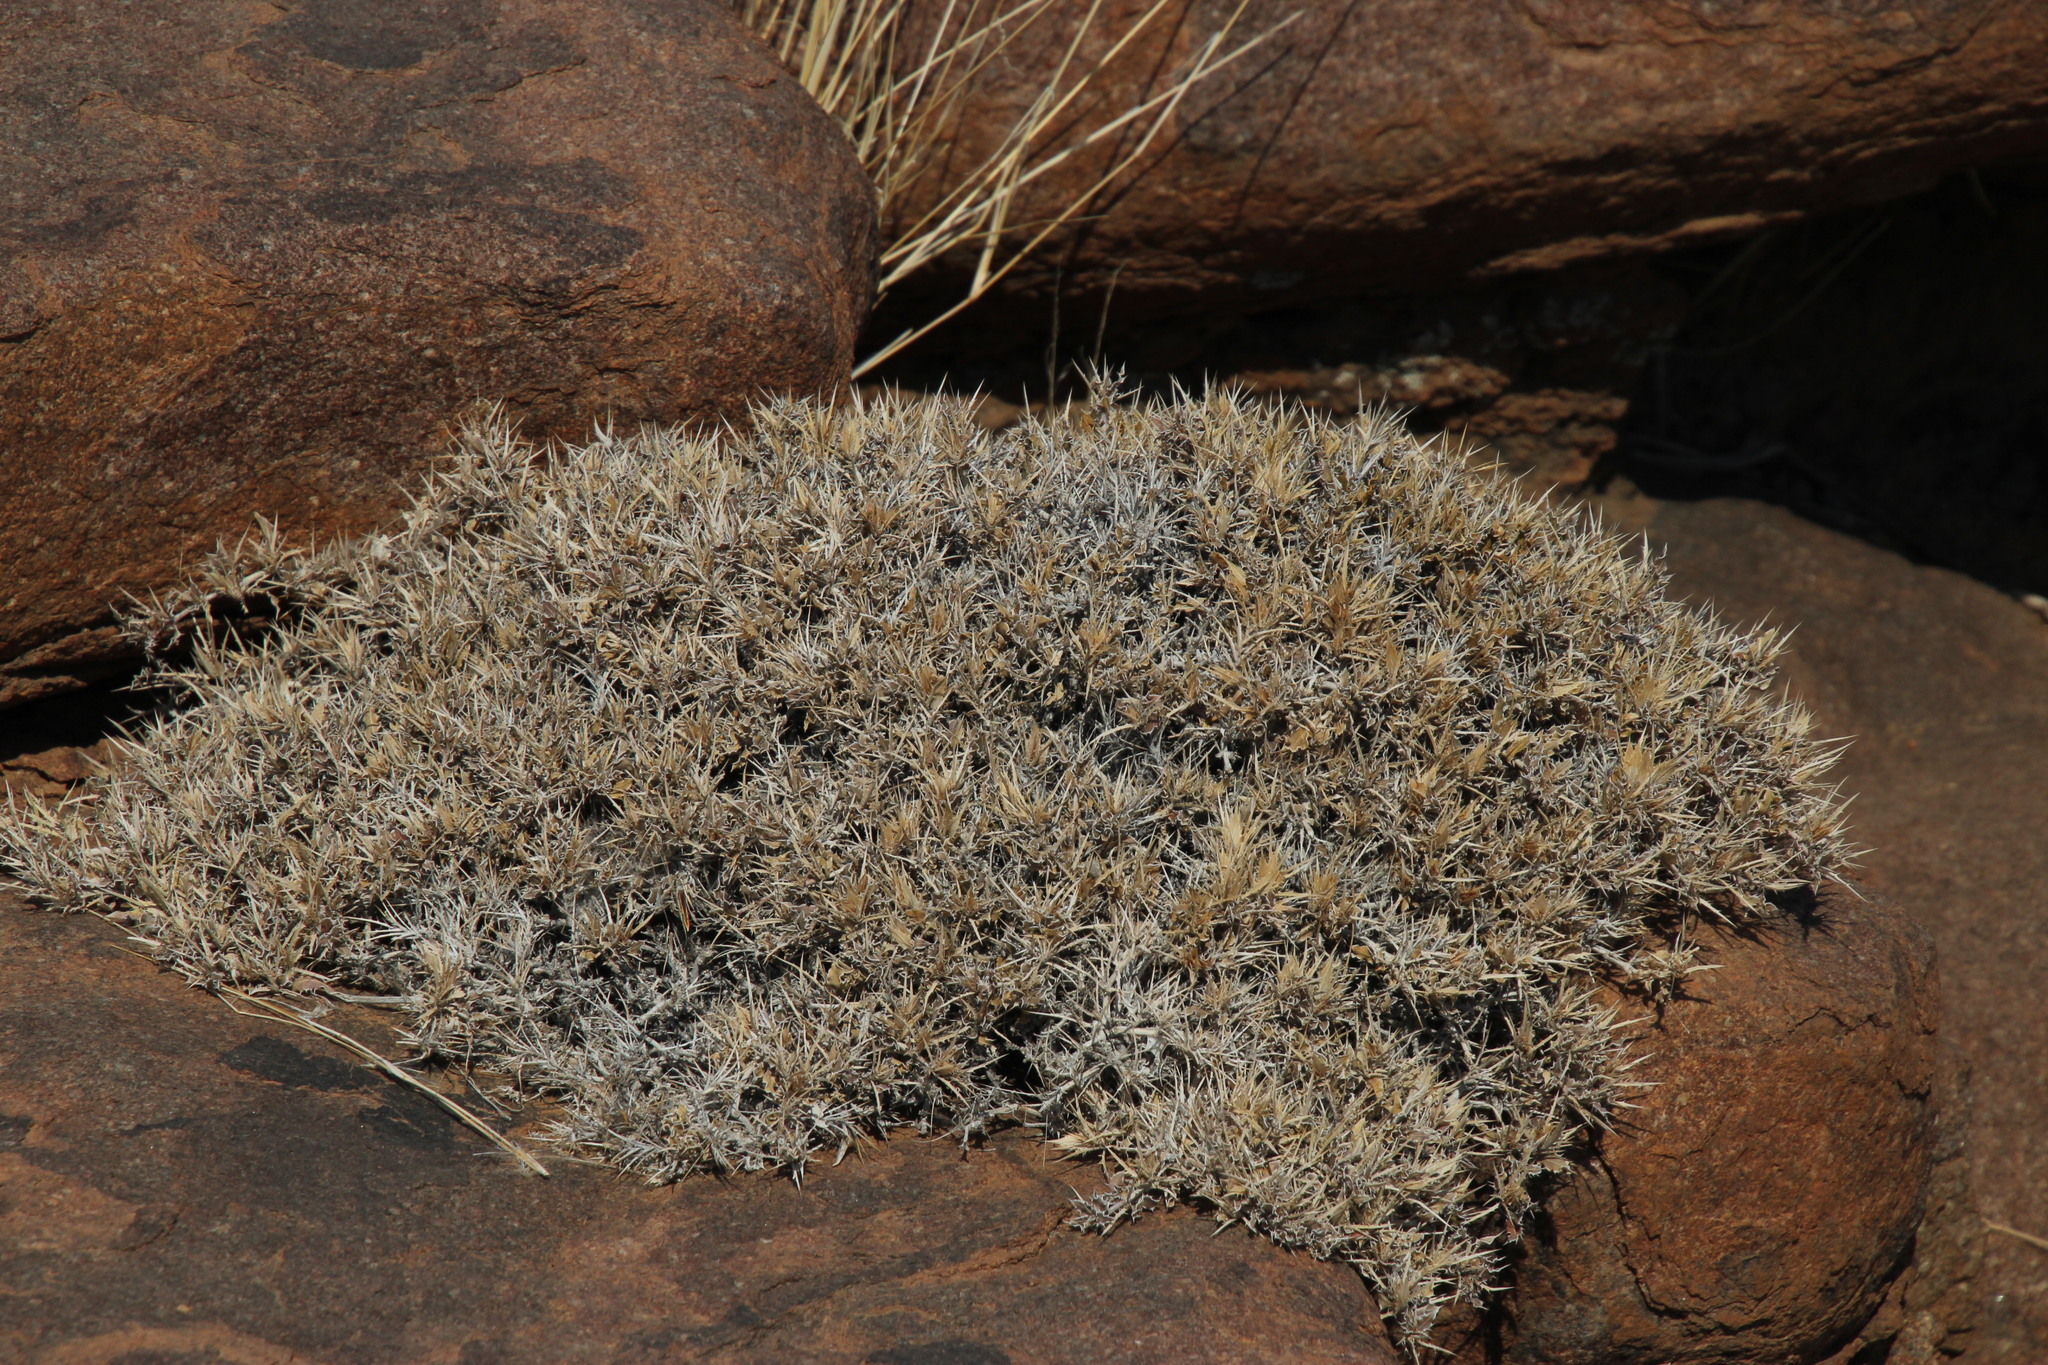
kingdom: Plantae
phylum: Tracheophyta
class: Magnoliopsida
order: Lamiales
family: Acanthaceae
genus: Barleria
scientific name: Barleria rigida
